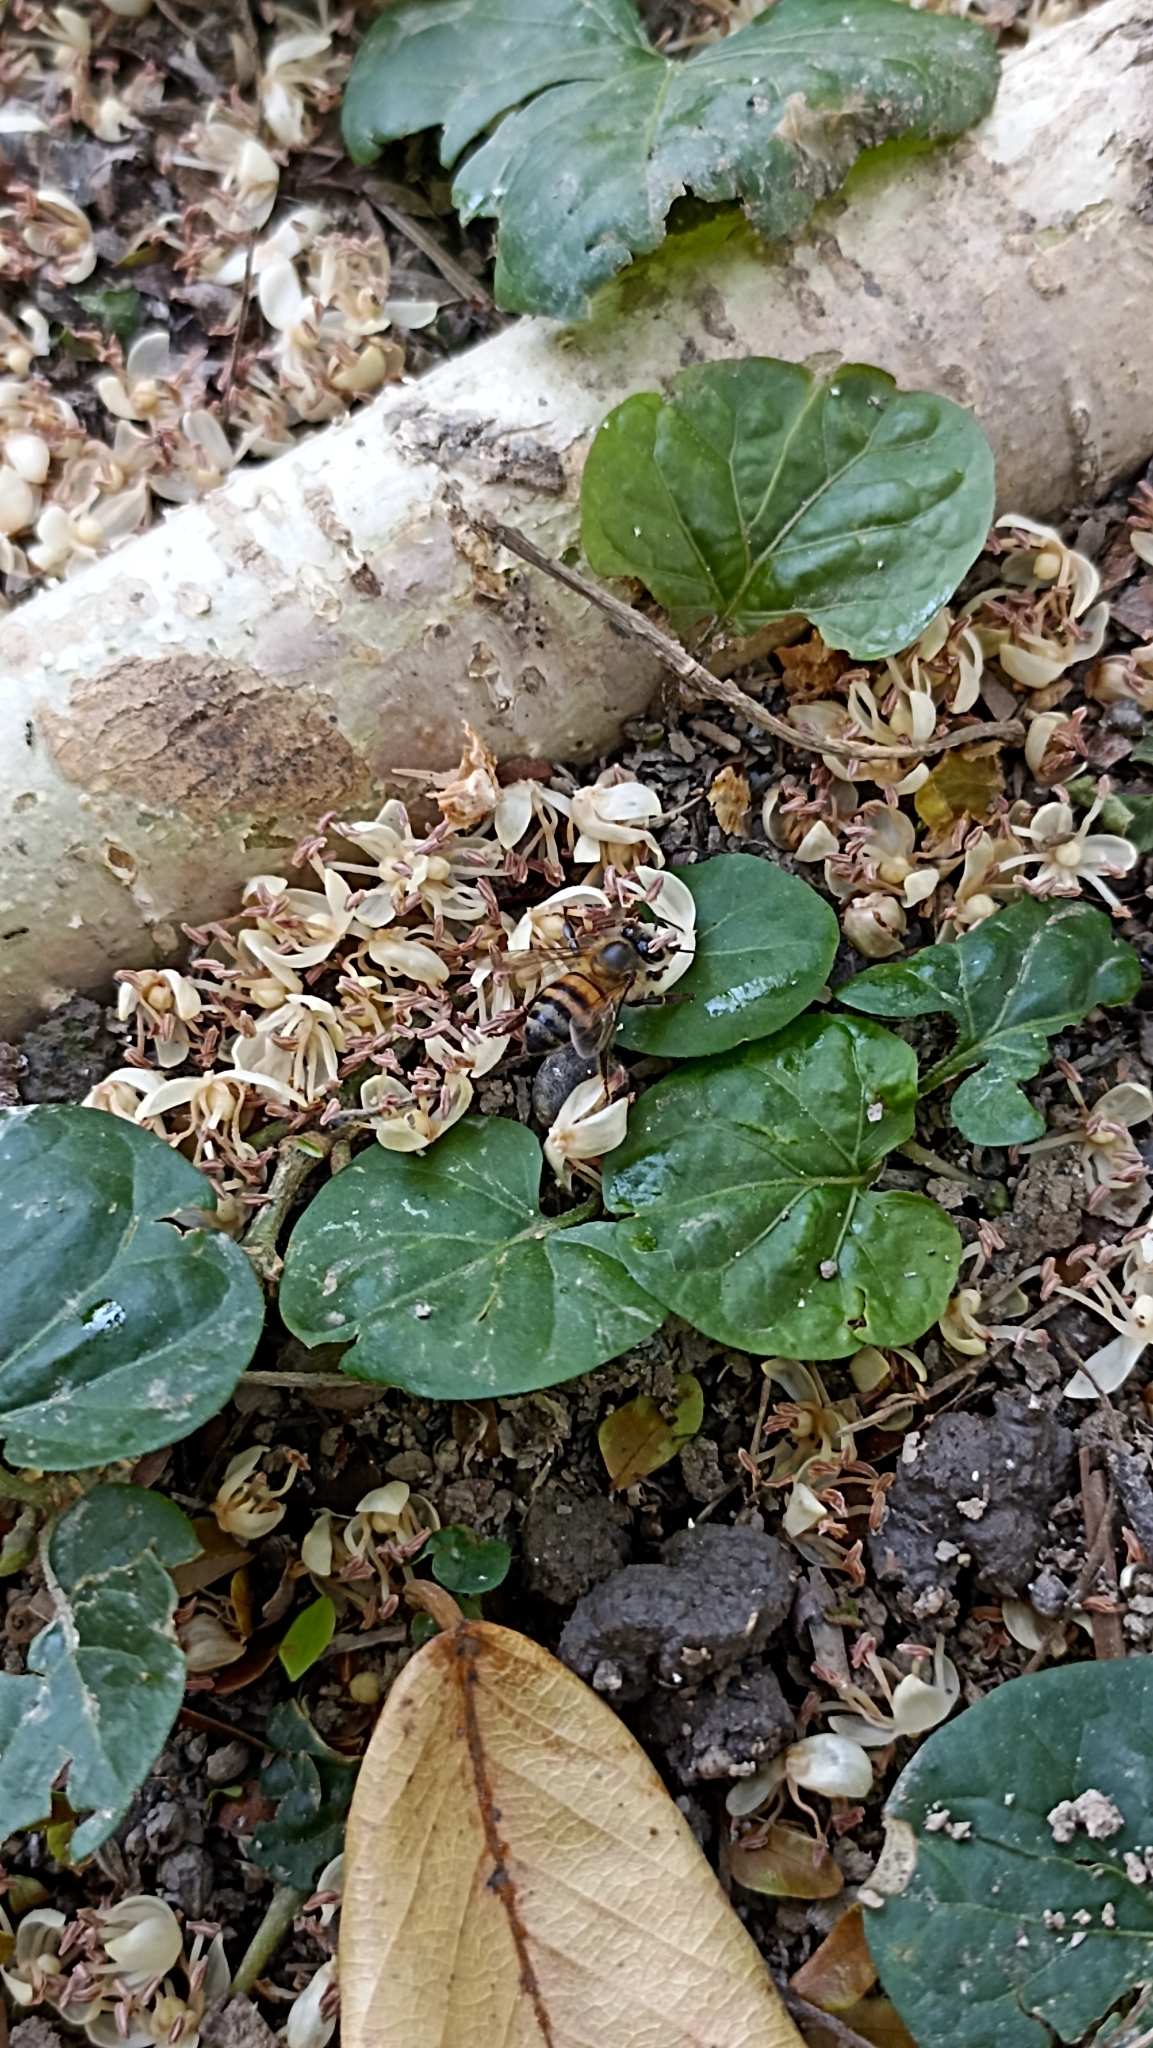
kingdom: Animalia
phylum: Arthropoda
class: Insecta
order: Hymenoptera
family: Apidae
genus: Apis
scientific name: Apis mellifera
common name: Honey bee
